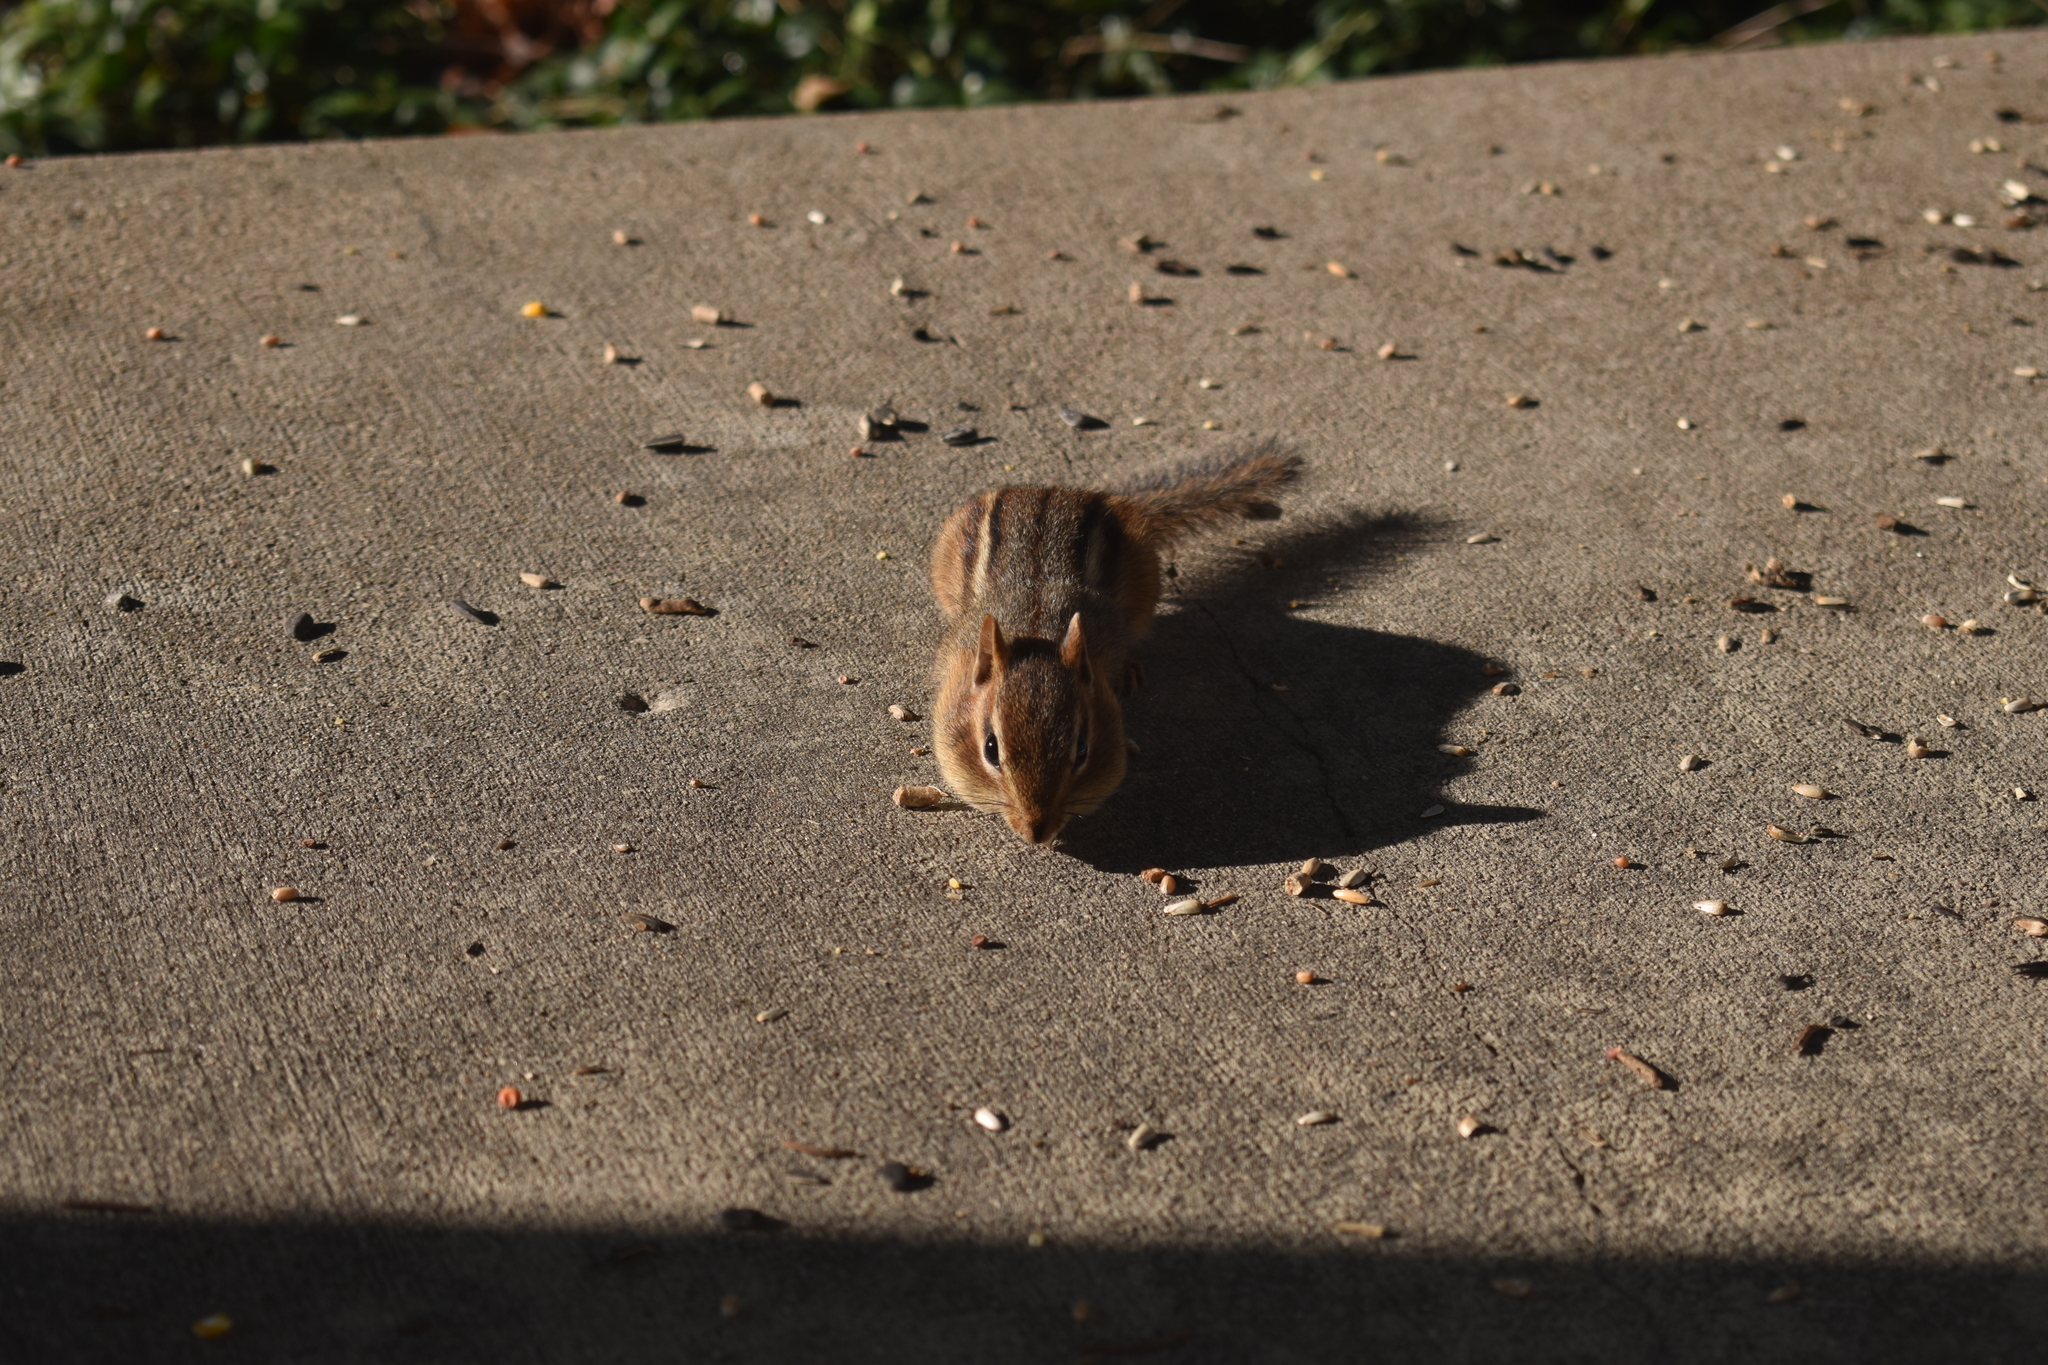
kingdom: Animalia
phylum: Chordata
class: Mammalia
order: Rodentia
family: Sciuridae
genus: Tamias
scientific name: Tamias striatus
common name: Eastern chipmunk
